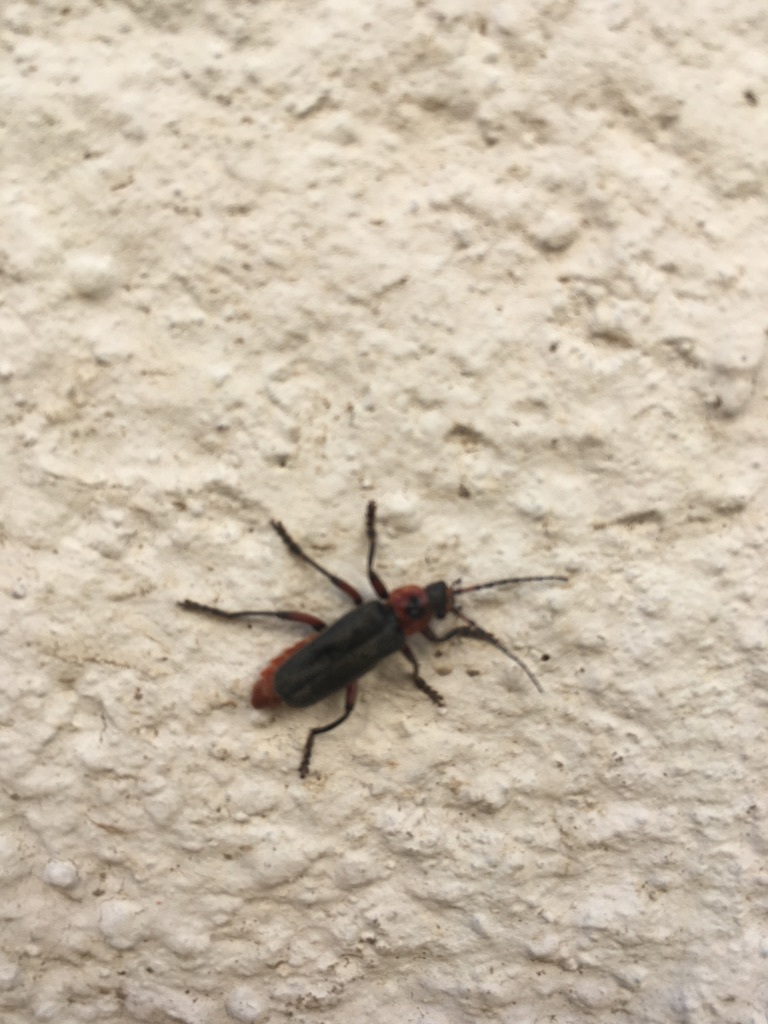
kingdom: Animalia
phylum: Arthropoda
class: Insecta
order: Coleoptera
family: Cantharidae
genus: Cantharis
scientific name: Cantharis rustica
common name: Soldier beetle
